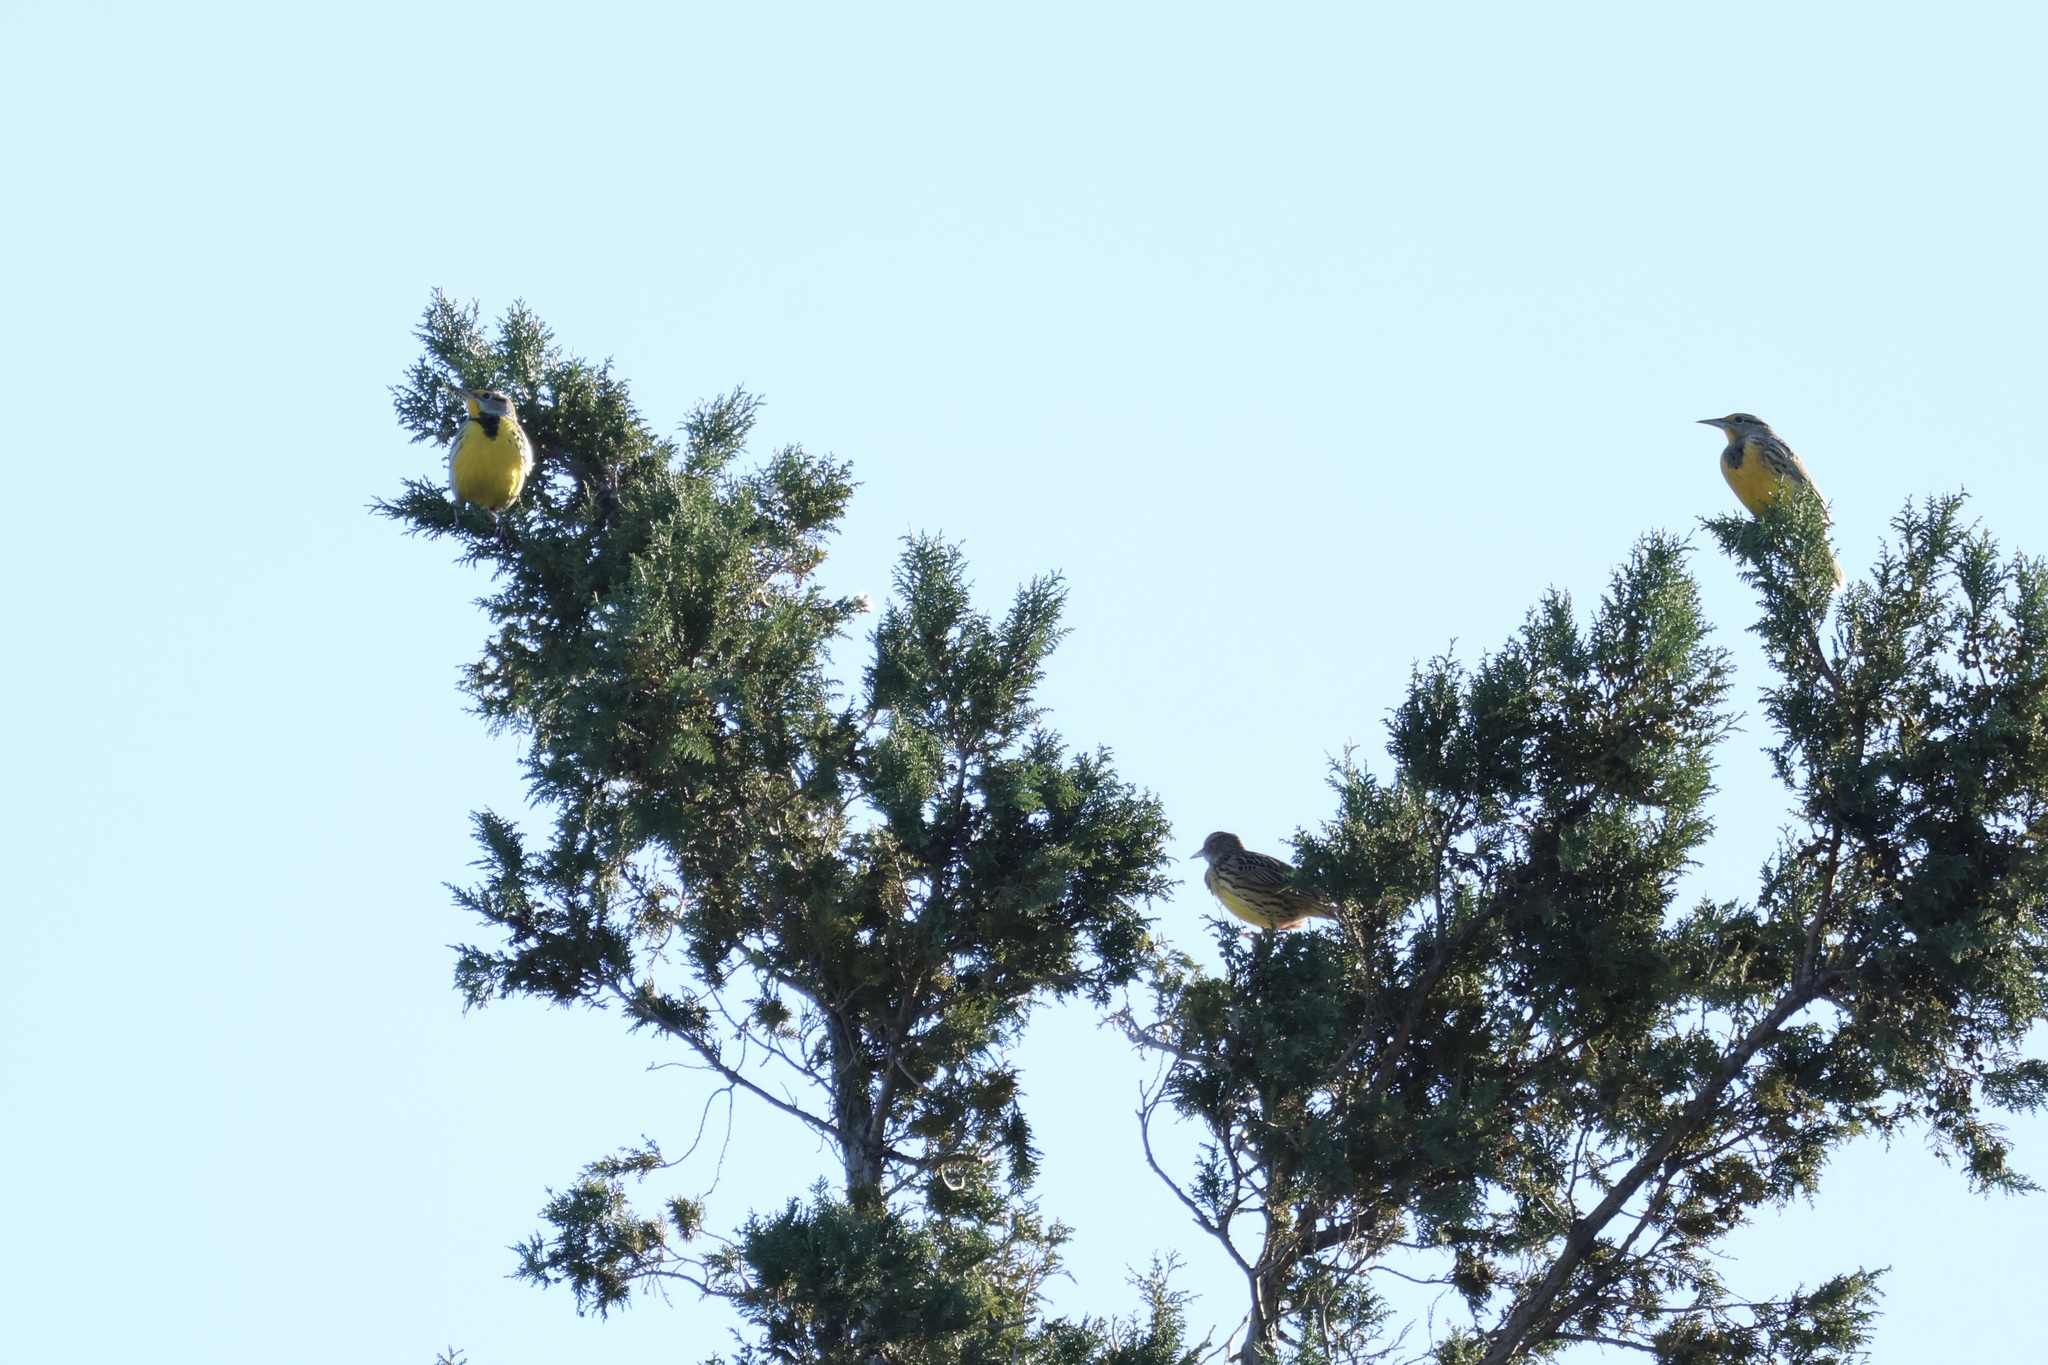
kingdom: Animalia
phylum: Chordata
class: Aves
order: Passeriformes
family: Icteridae
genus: Sturnella
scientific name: Sturnella magna
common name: Eastern meadowlark
